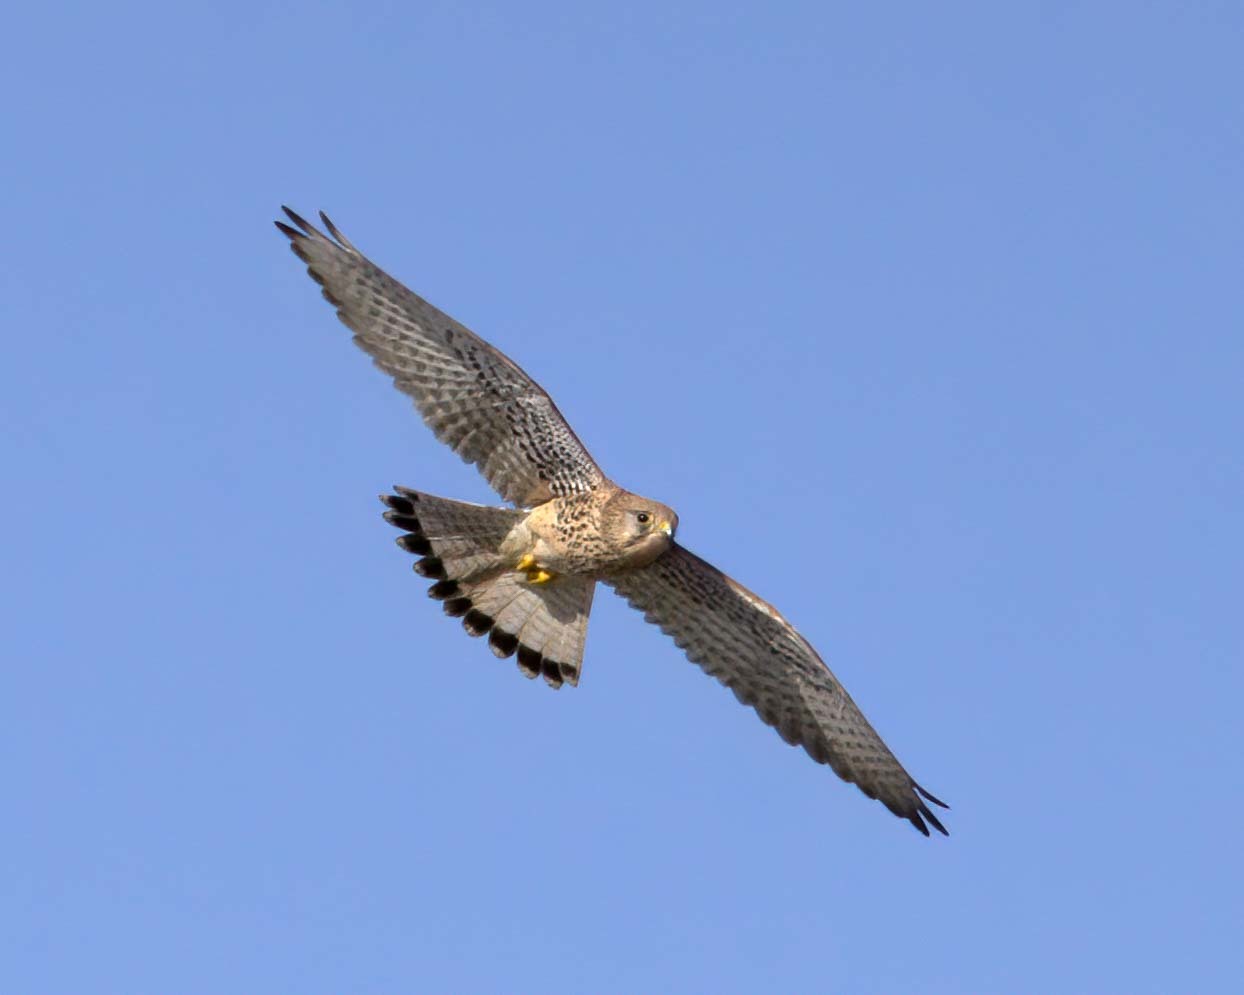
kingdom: Animalia
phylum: Chordata
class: Aves
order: Falconiformes
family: Falconidae
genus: Falco
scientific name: Falco tinnunculus
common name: Common kestrel
